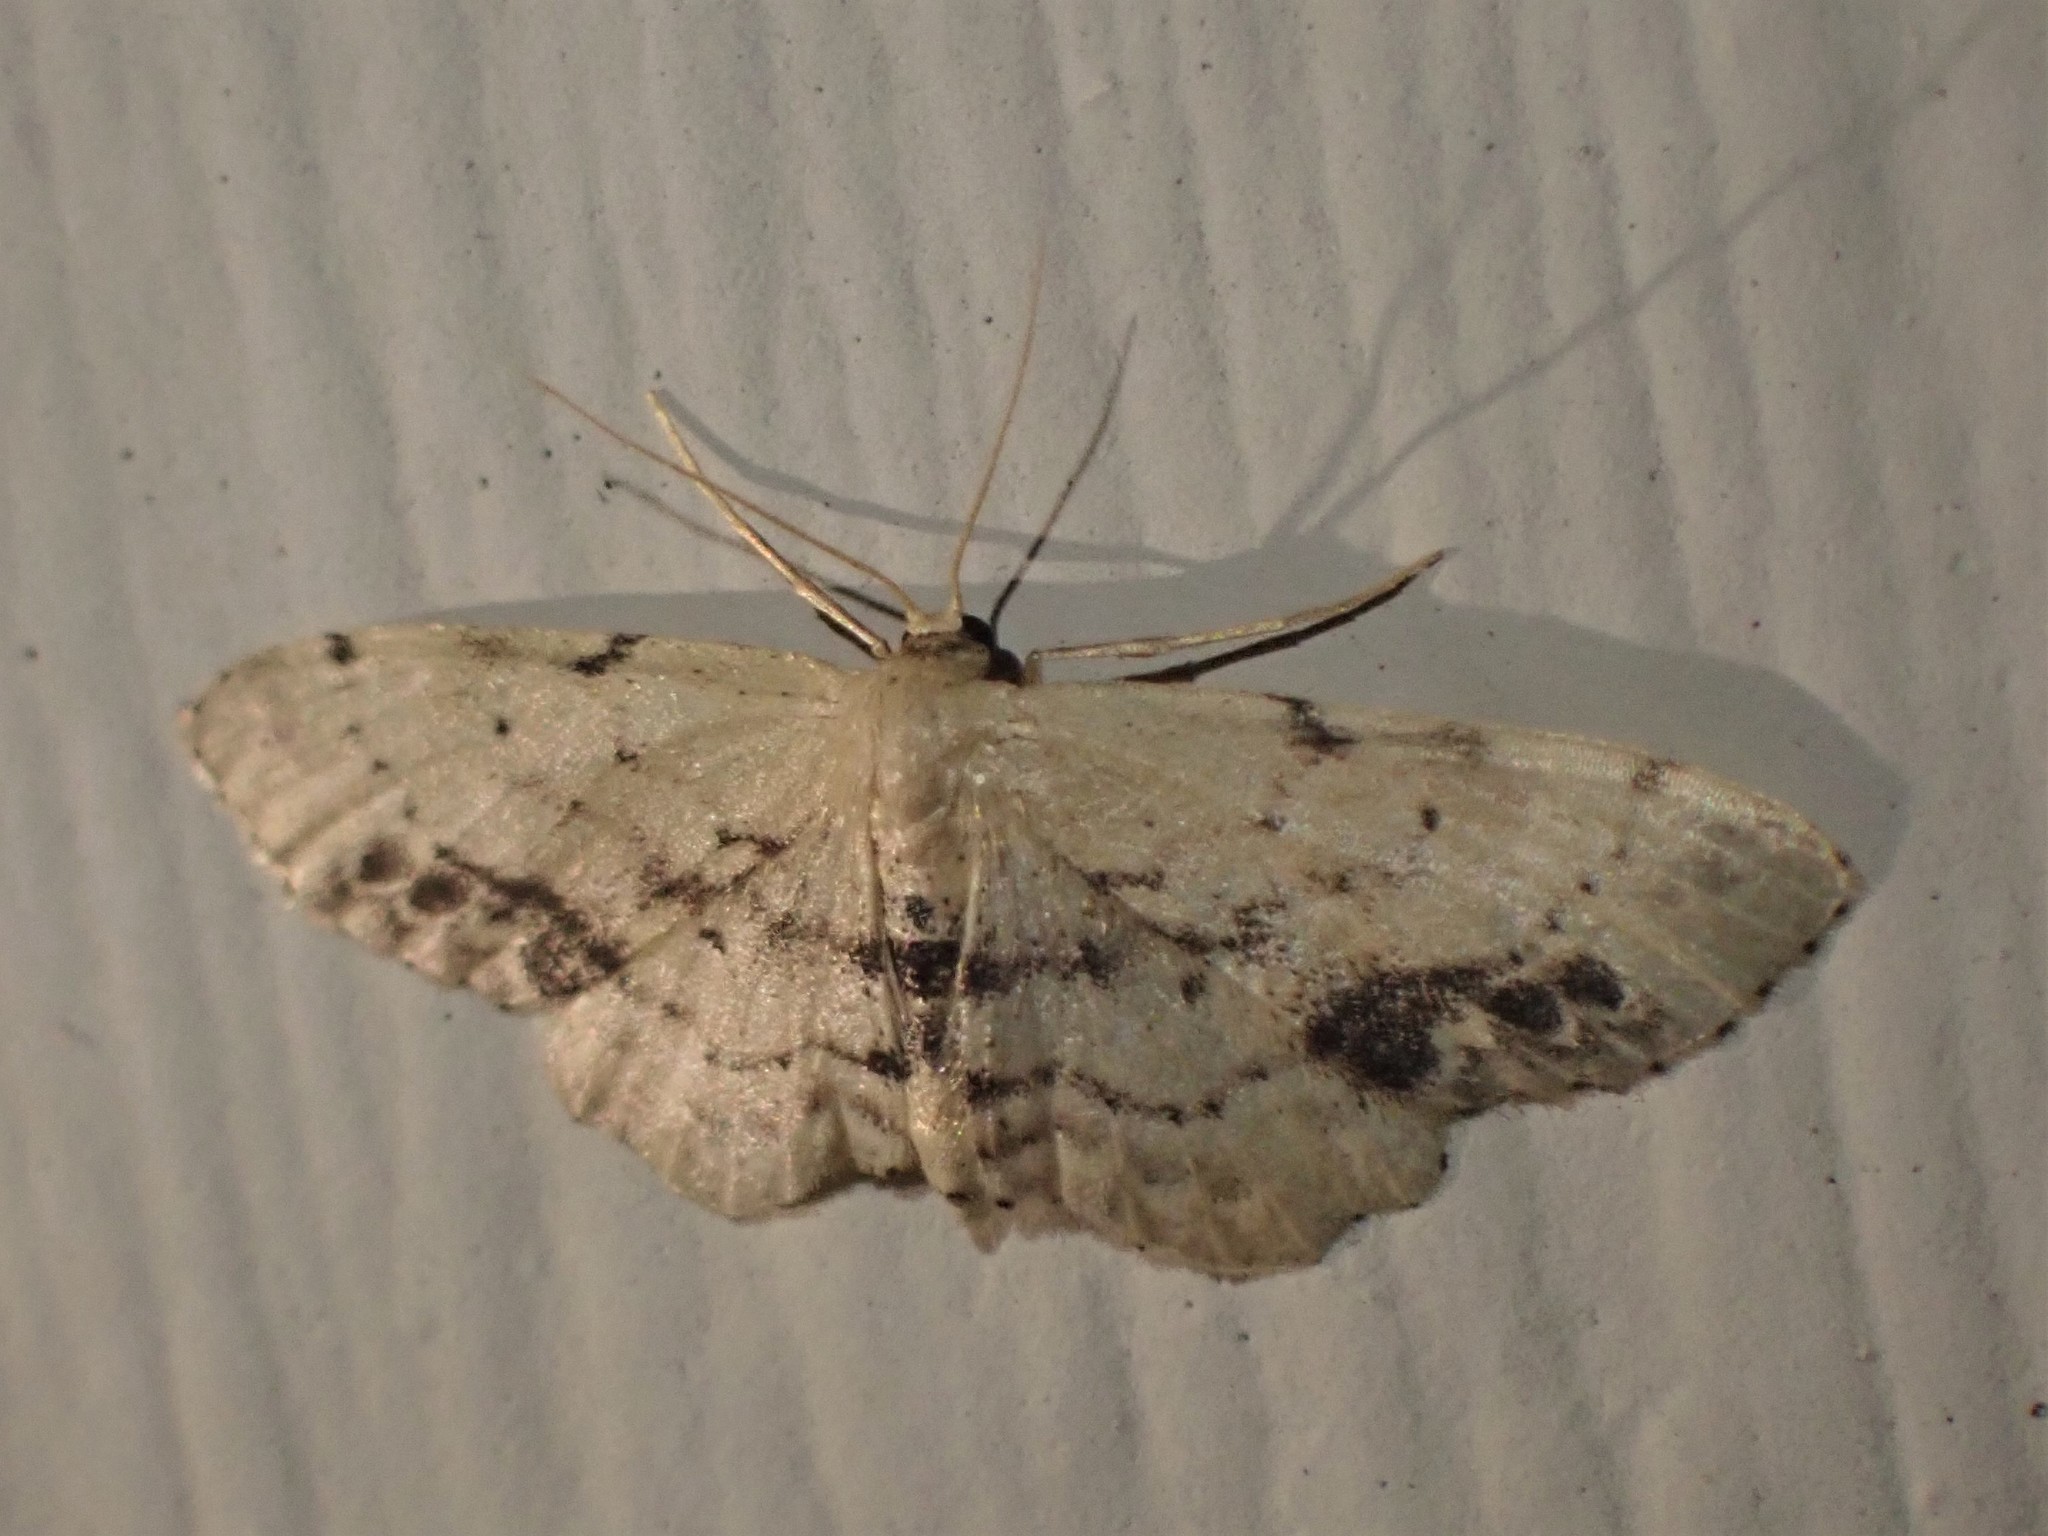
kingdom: Animalia
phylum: Arthropoda
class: Insecta
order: Lepidoptera
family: Geometridae
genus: Idaea
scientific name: Idaea dimidiata
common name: Single-dotted wave
